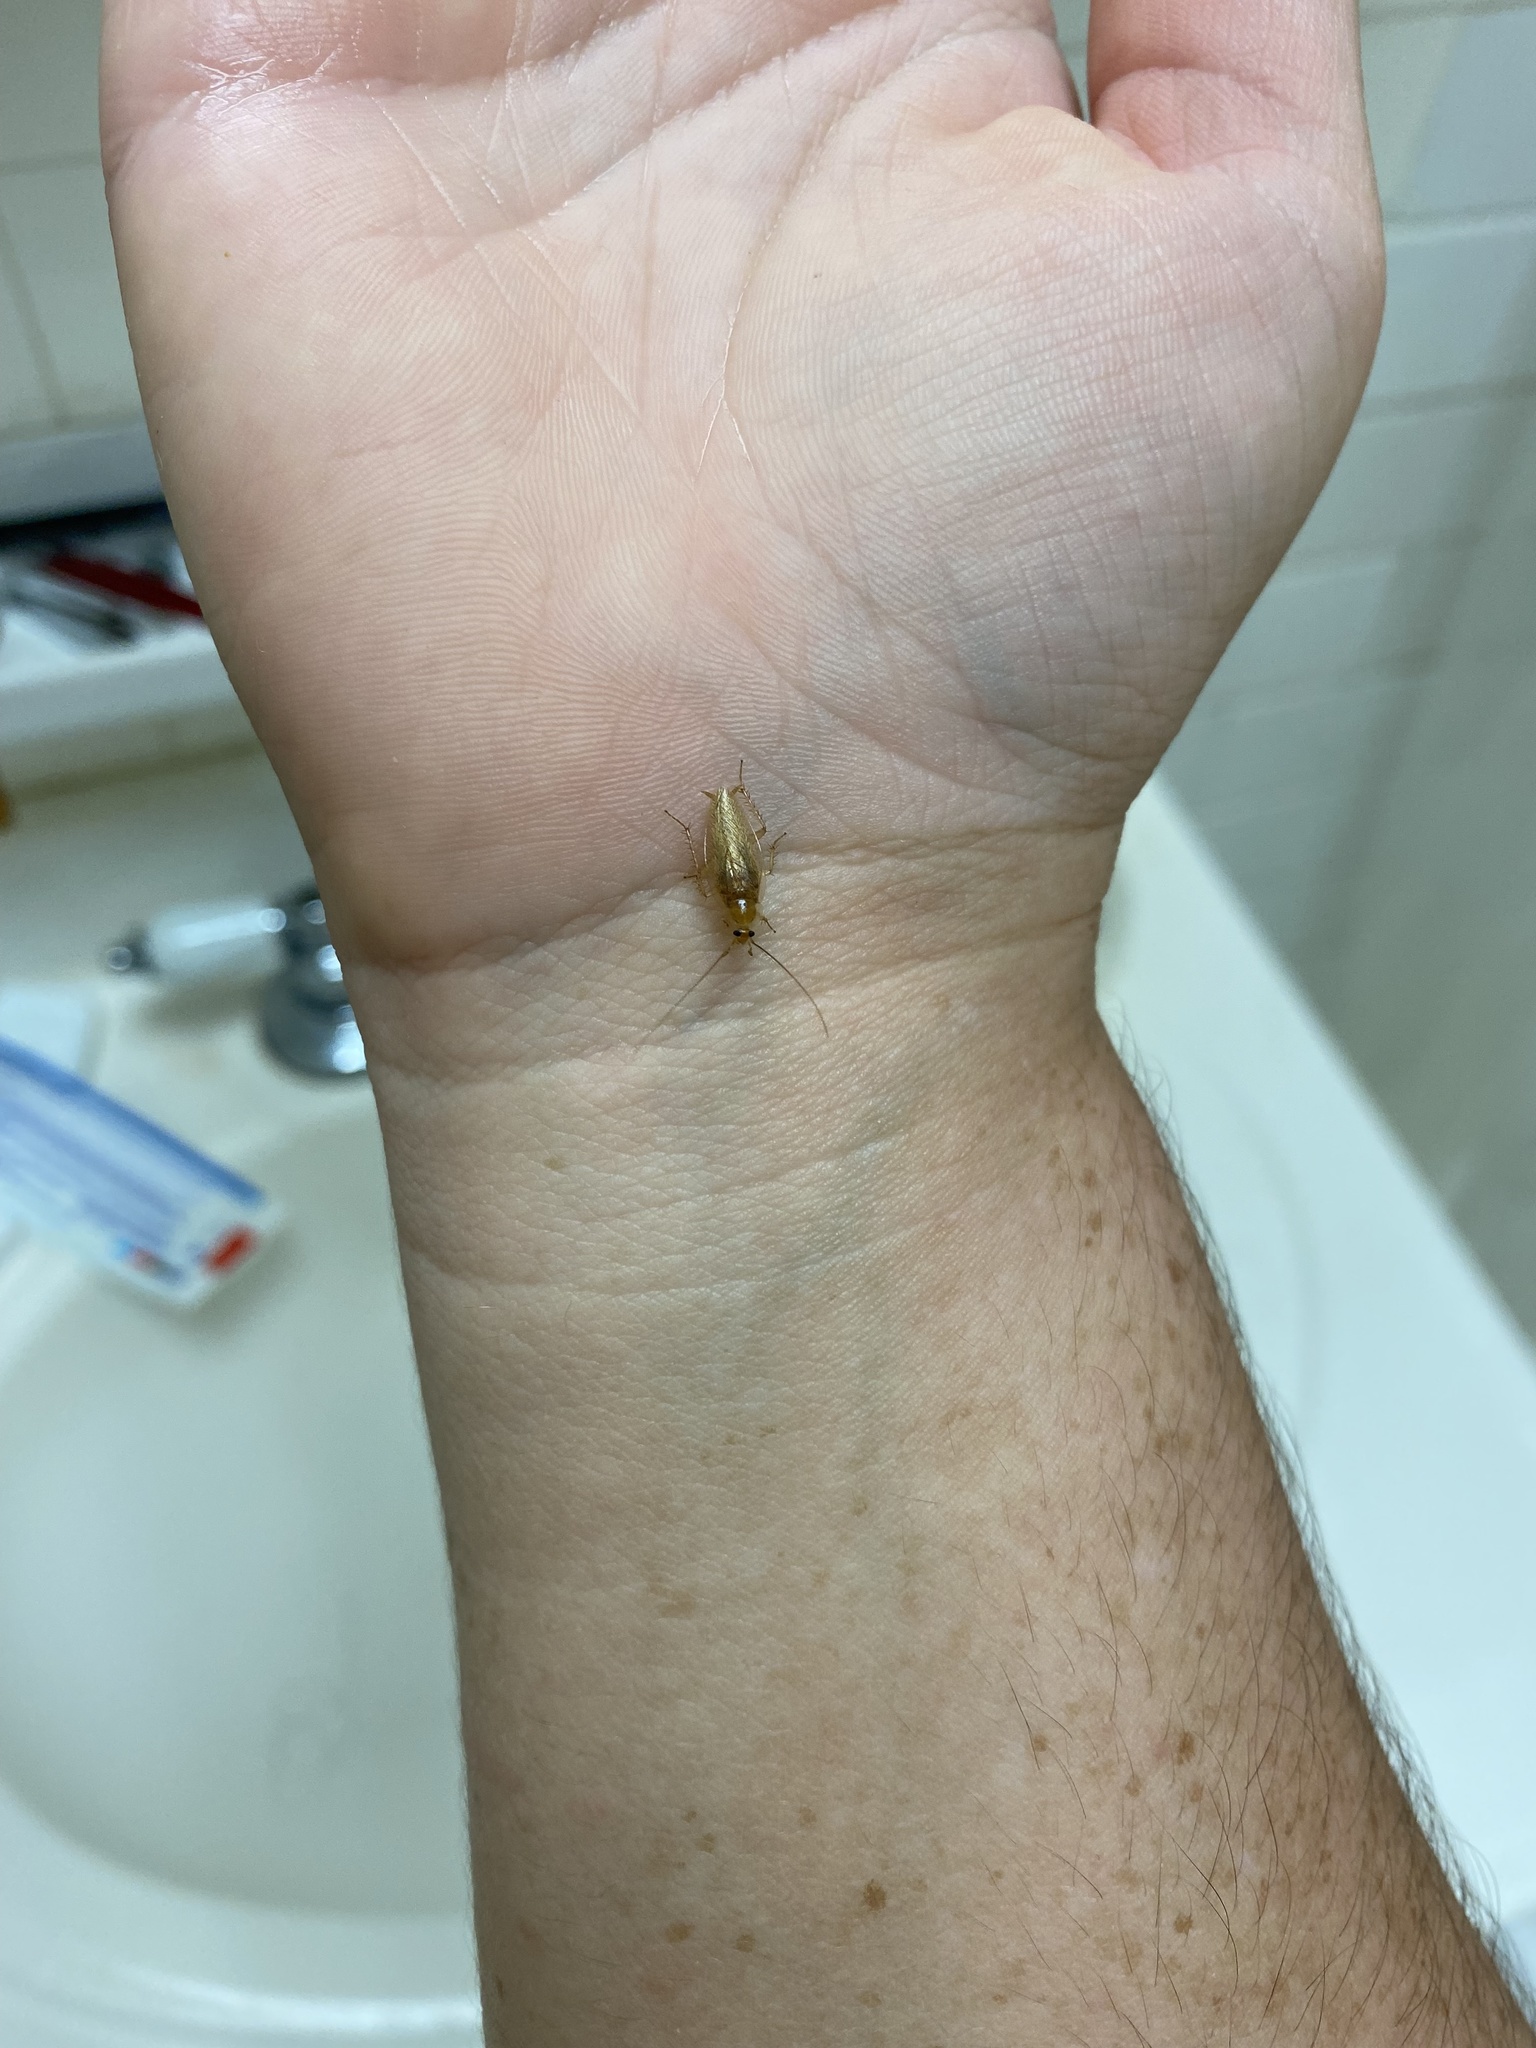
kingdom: Animalia
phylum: Arthropoda
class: Insecta
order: Blattodea
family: Ectobiidae
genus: Ectobius
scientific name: Ectobius pallidus
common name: Tawny cockroach
